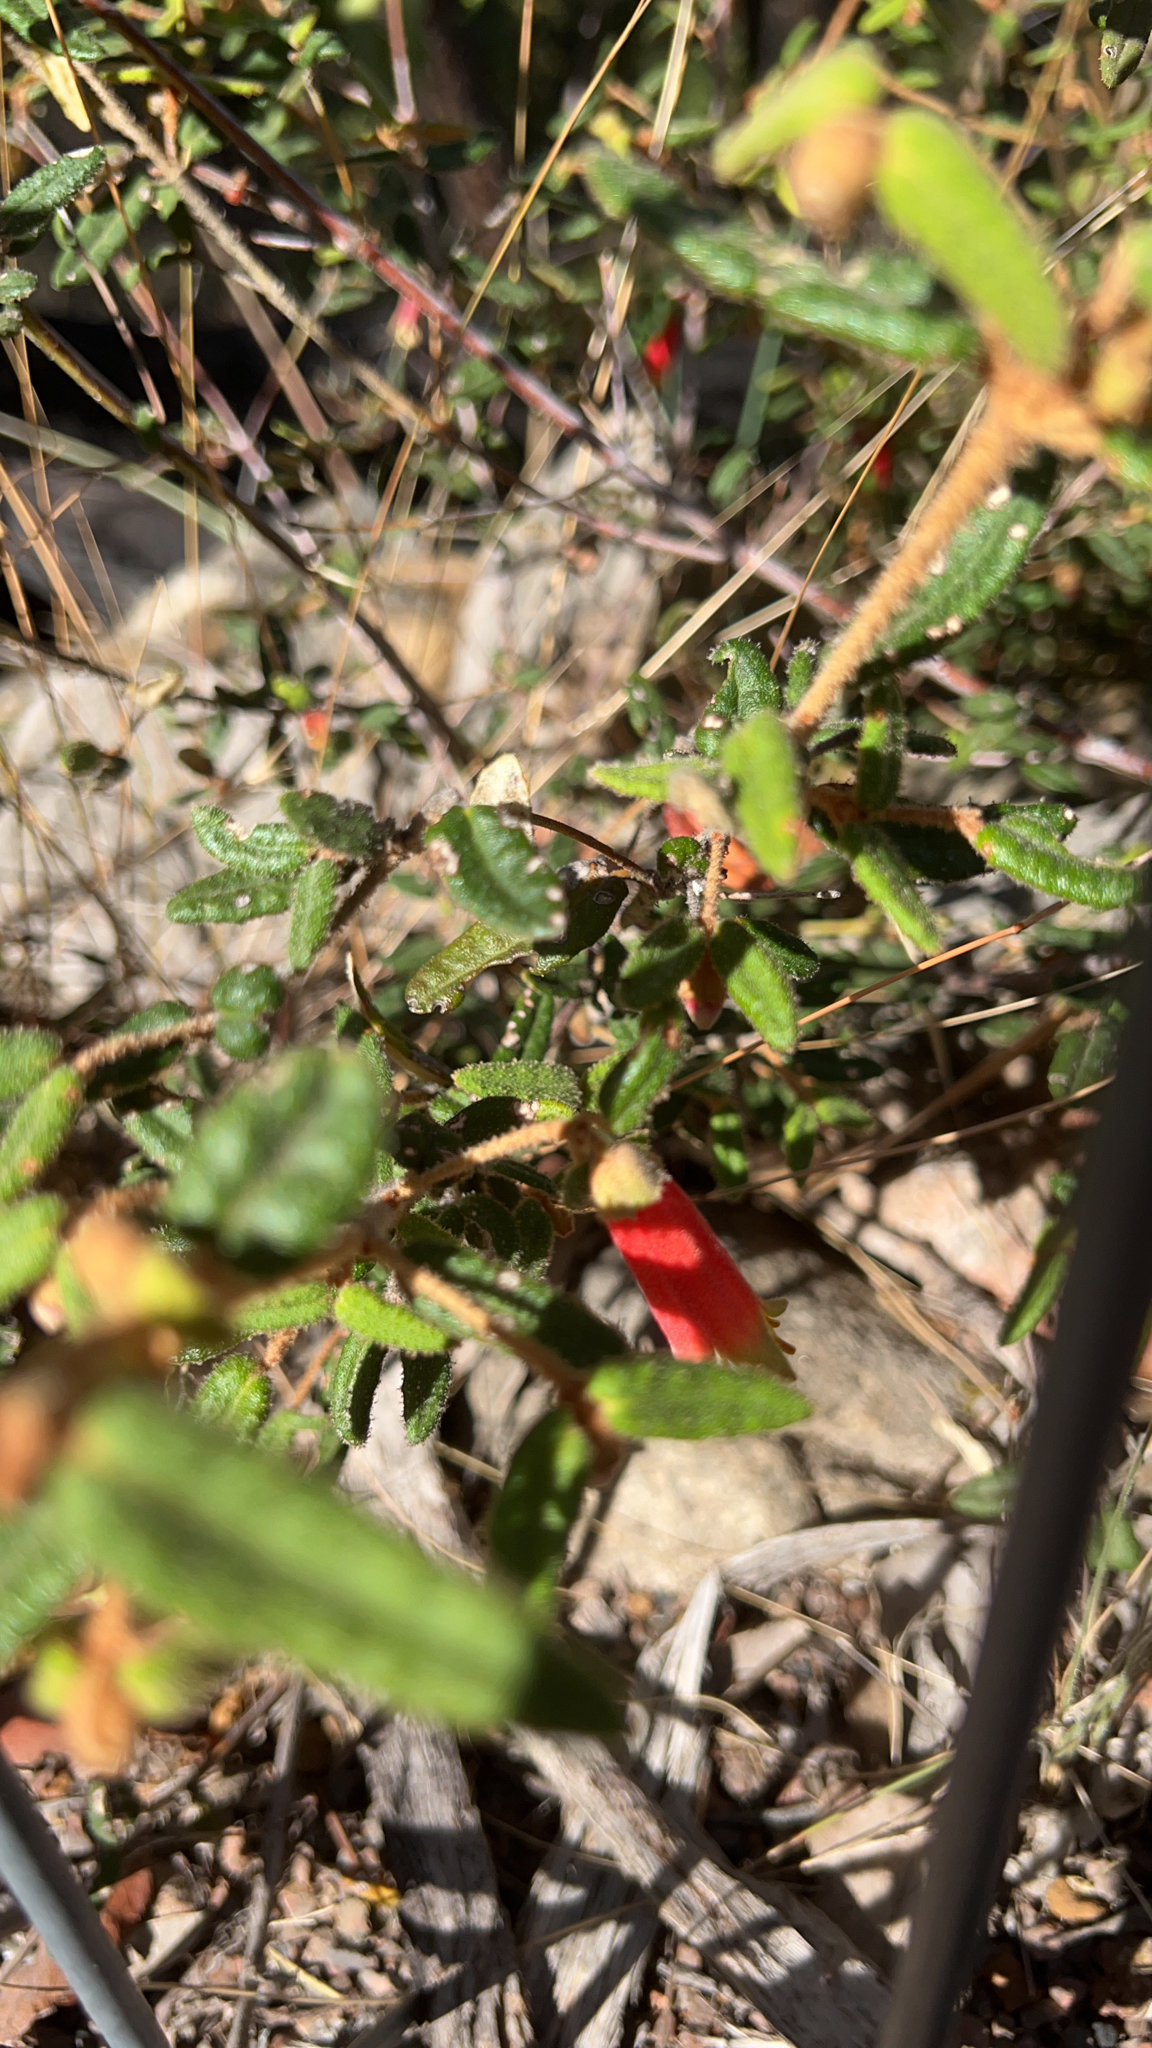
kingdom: Plantae
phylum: Tracheophyta
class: Magnoliopsida
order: Sapindales
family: Rutaceae
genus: Correa
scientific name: Correa reflexa
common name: Common correa
